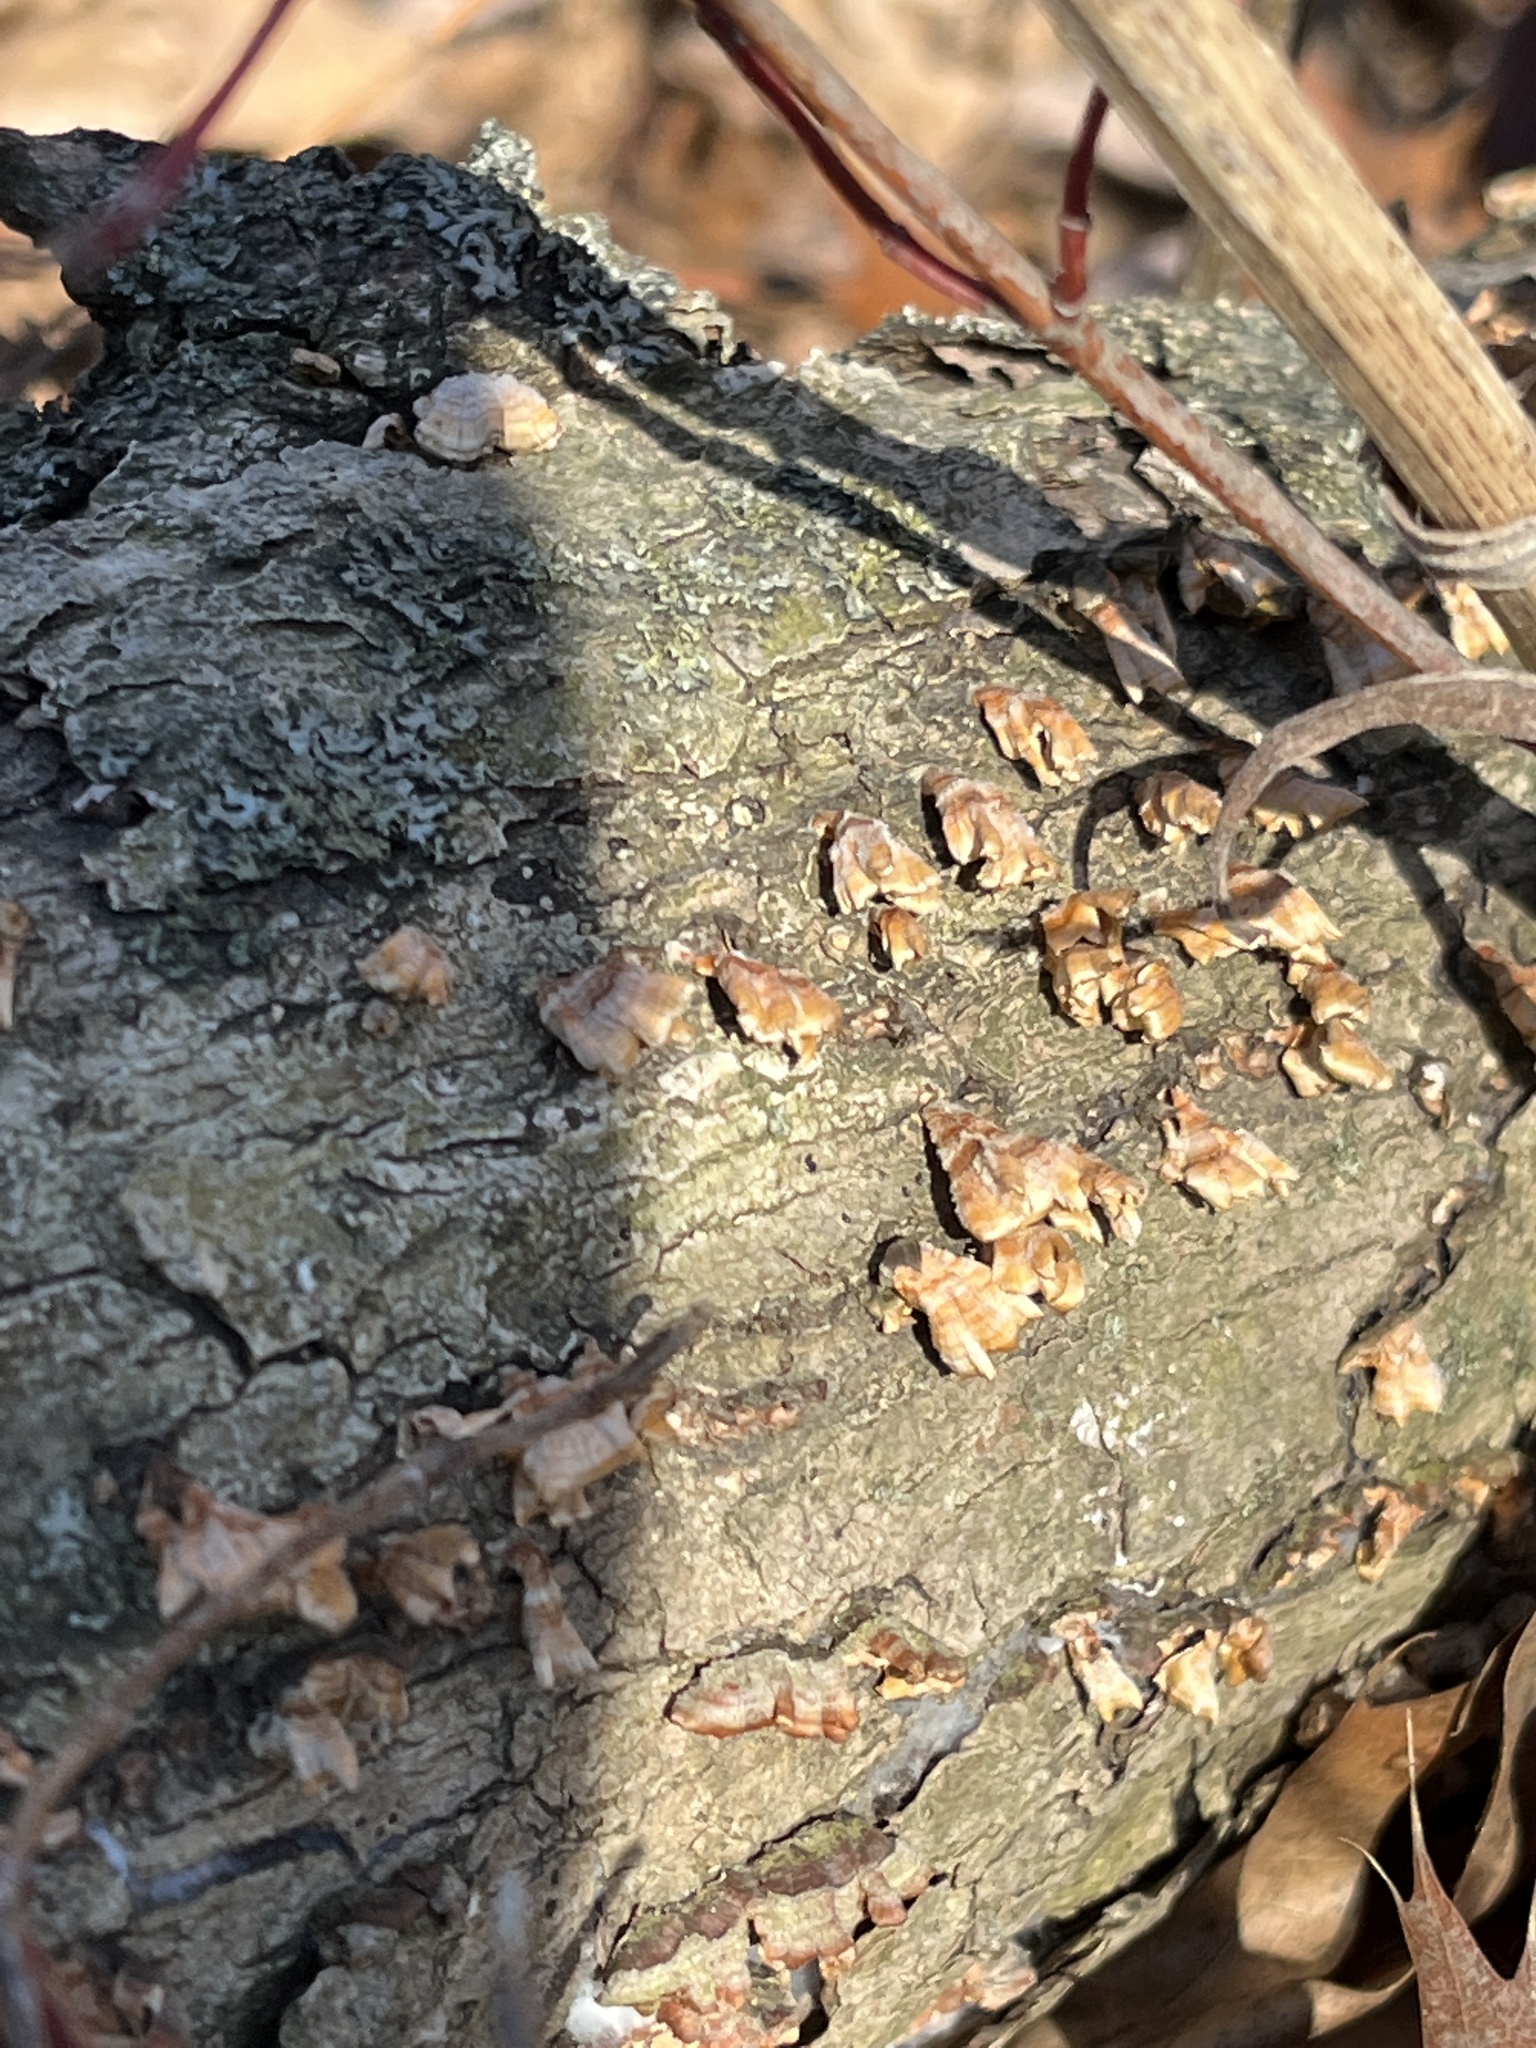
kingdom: Fungi
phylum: Basidiomycota
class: Agaricomycetes
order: Russulales
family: Stereaceae
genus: Stereum
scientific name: Stereum complicatum
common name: Crowded parchment
